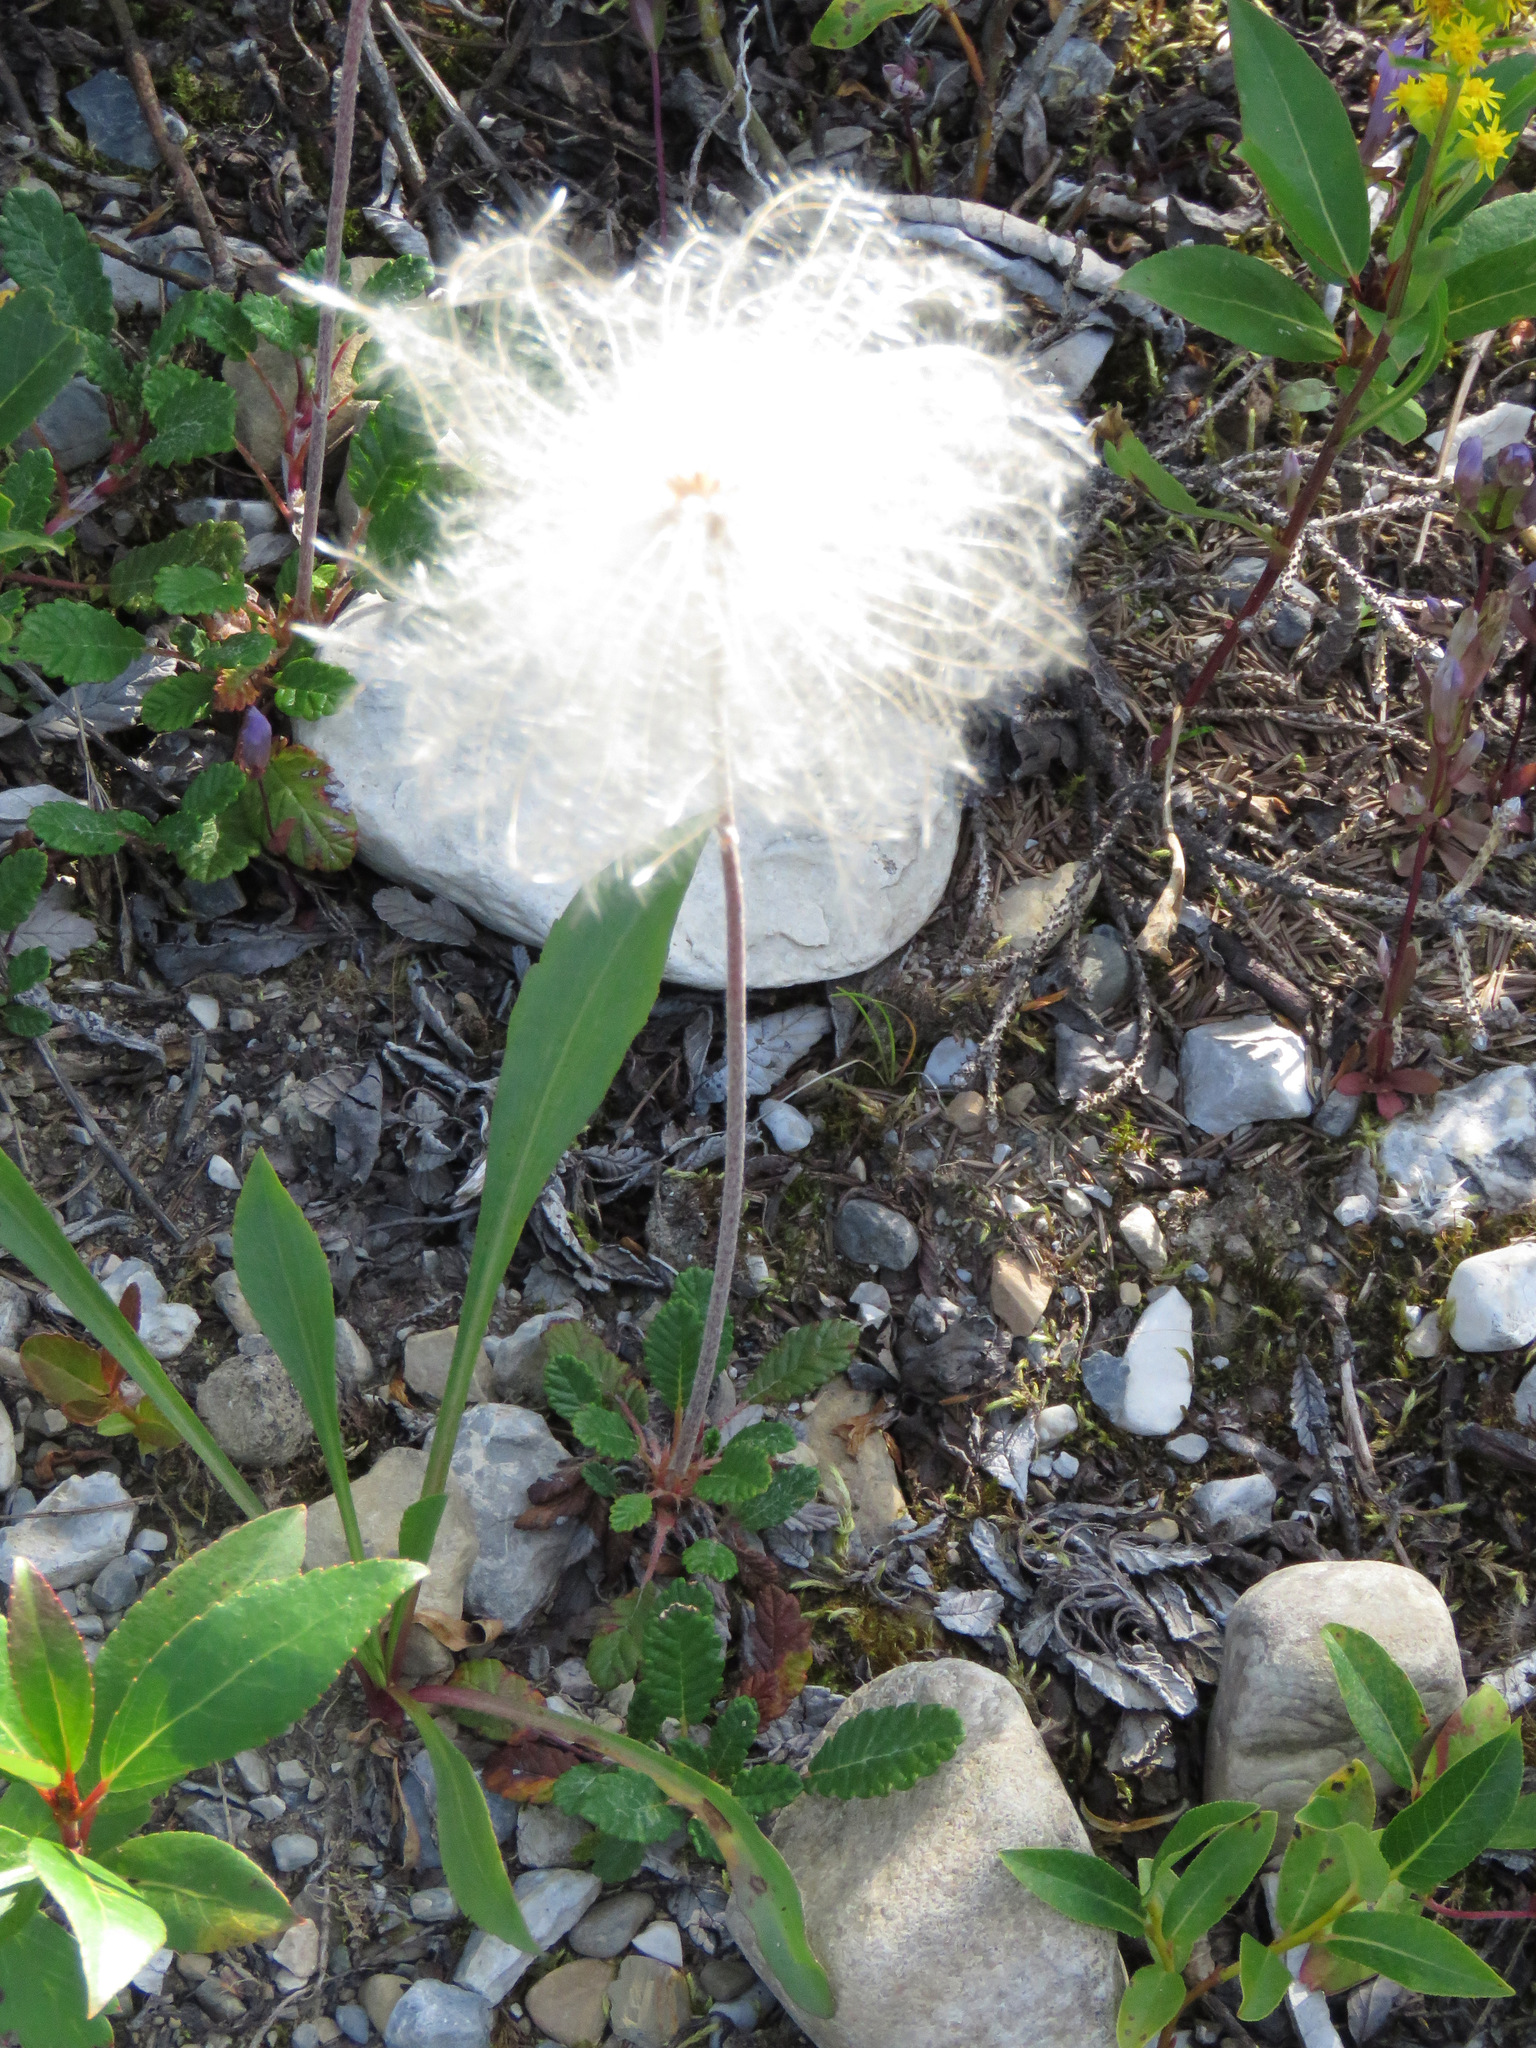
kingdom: Plantae
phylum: Tracheophyta
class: Magnoliopsida
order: Rosales
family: Rosaceae
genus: Dryas
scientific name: Dryas drummondii
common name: Drummond's dryad
